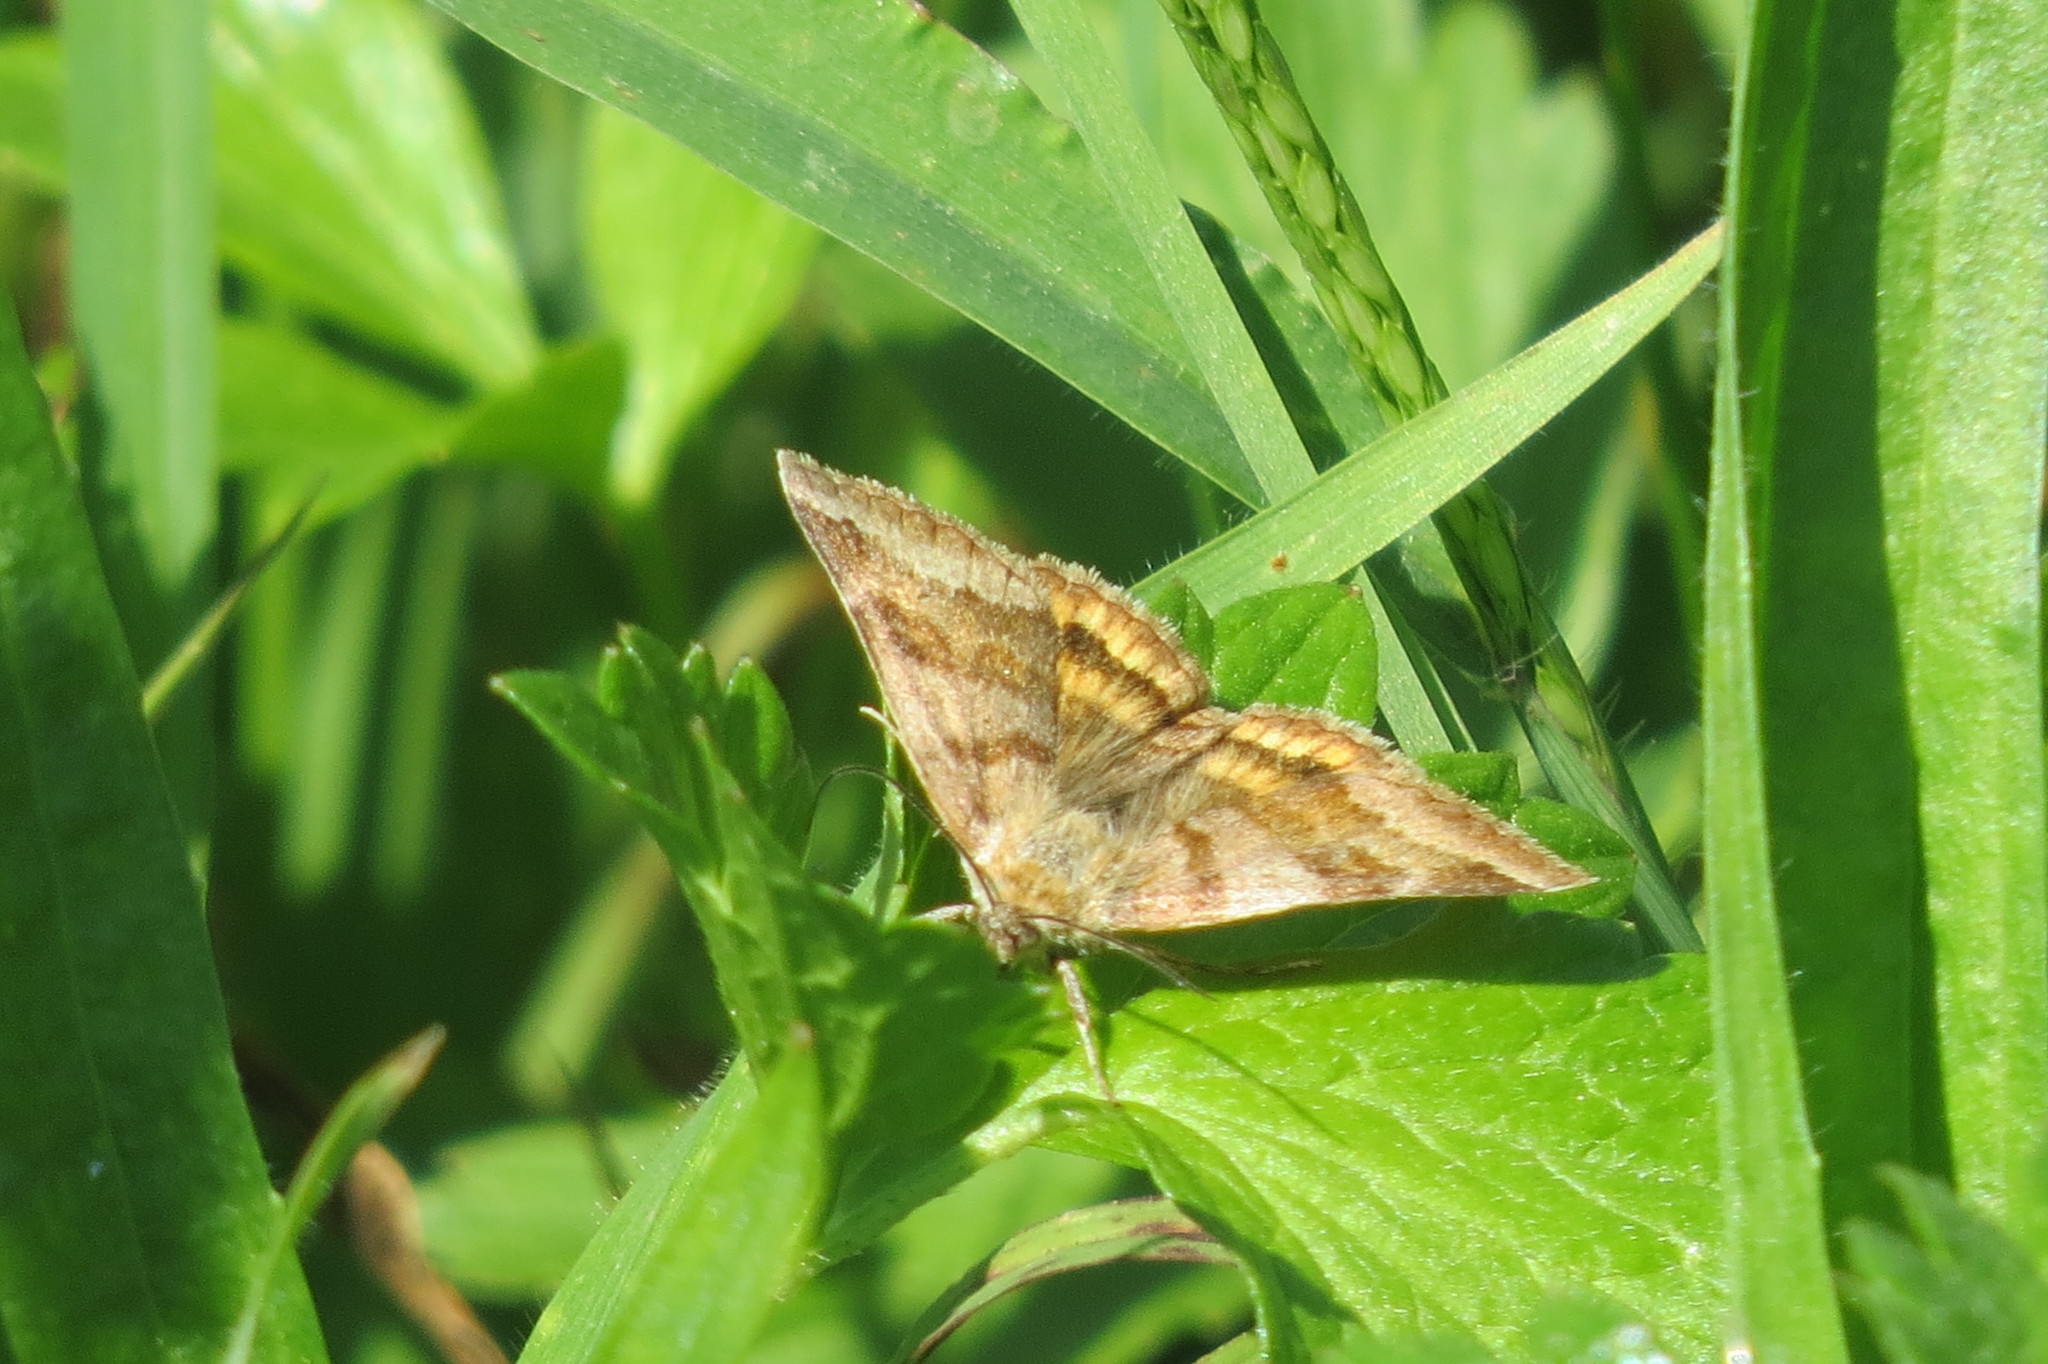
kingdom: Animalia
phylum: Arthropoda
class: Insecta
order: Lepidoptera
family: Erebidae
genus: Euclidia
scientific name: Euclidia glyphica
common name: Burnet companion
